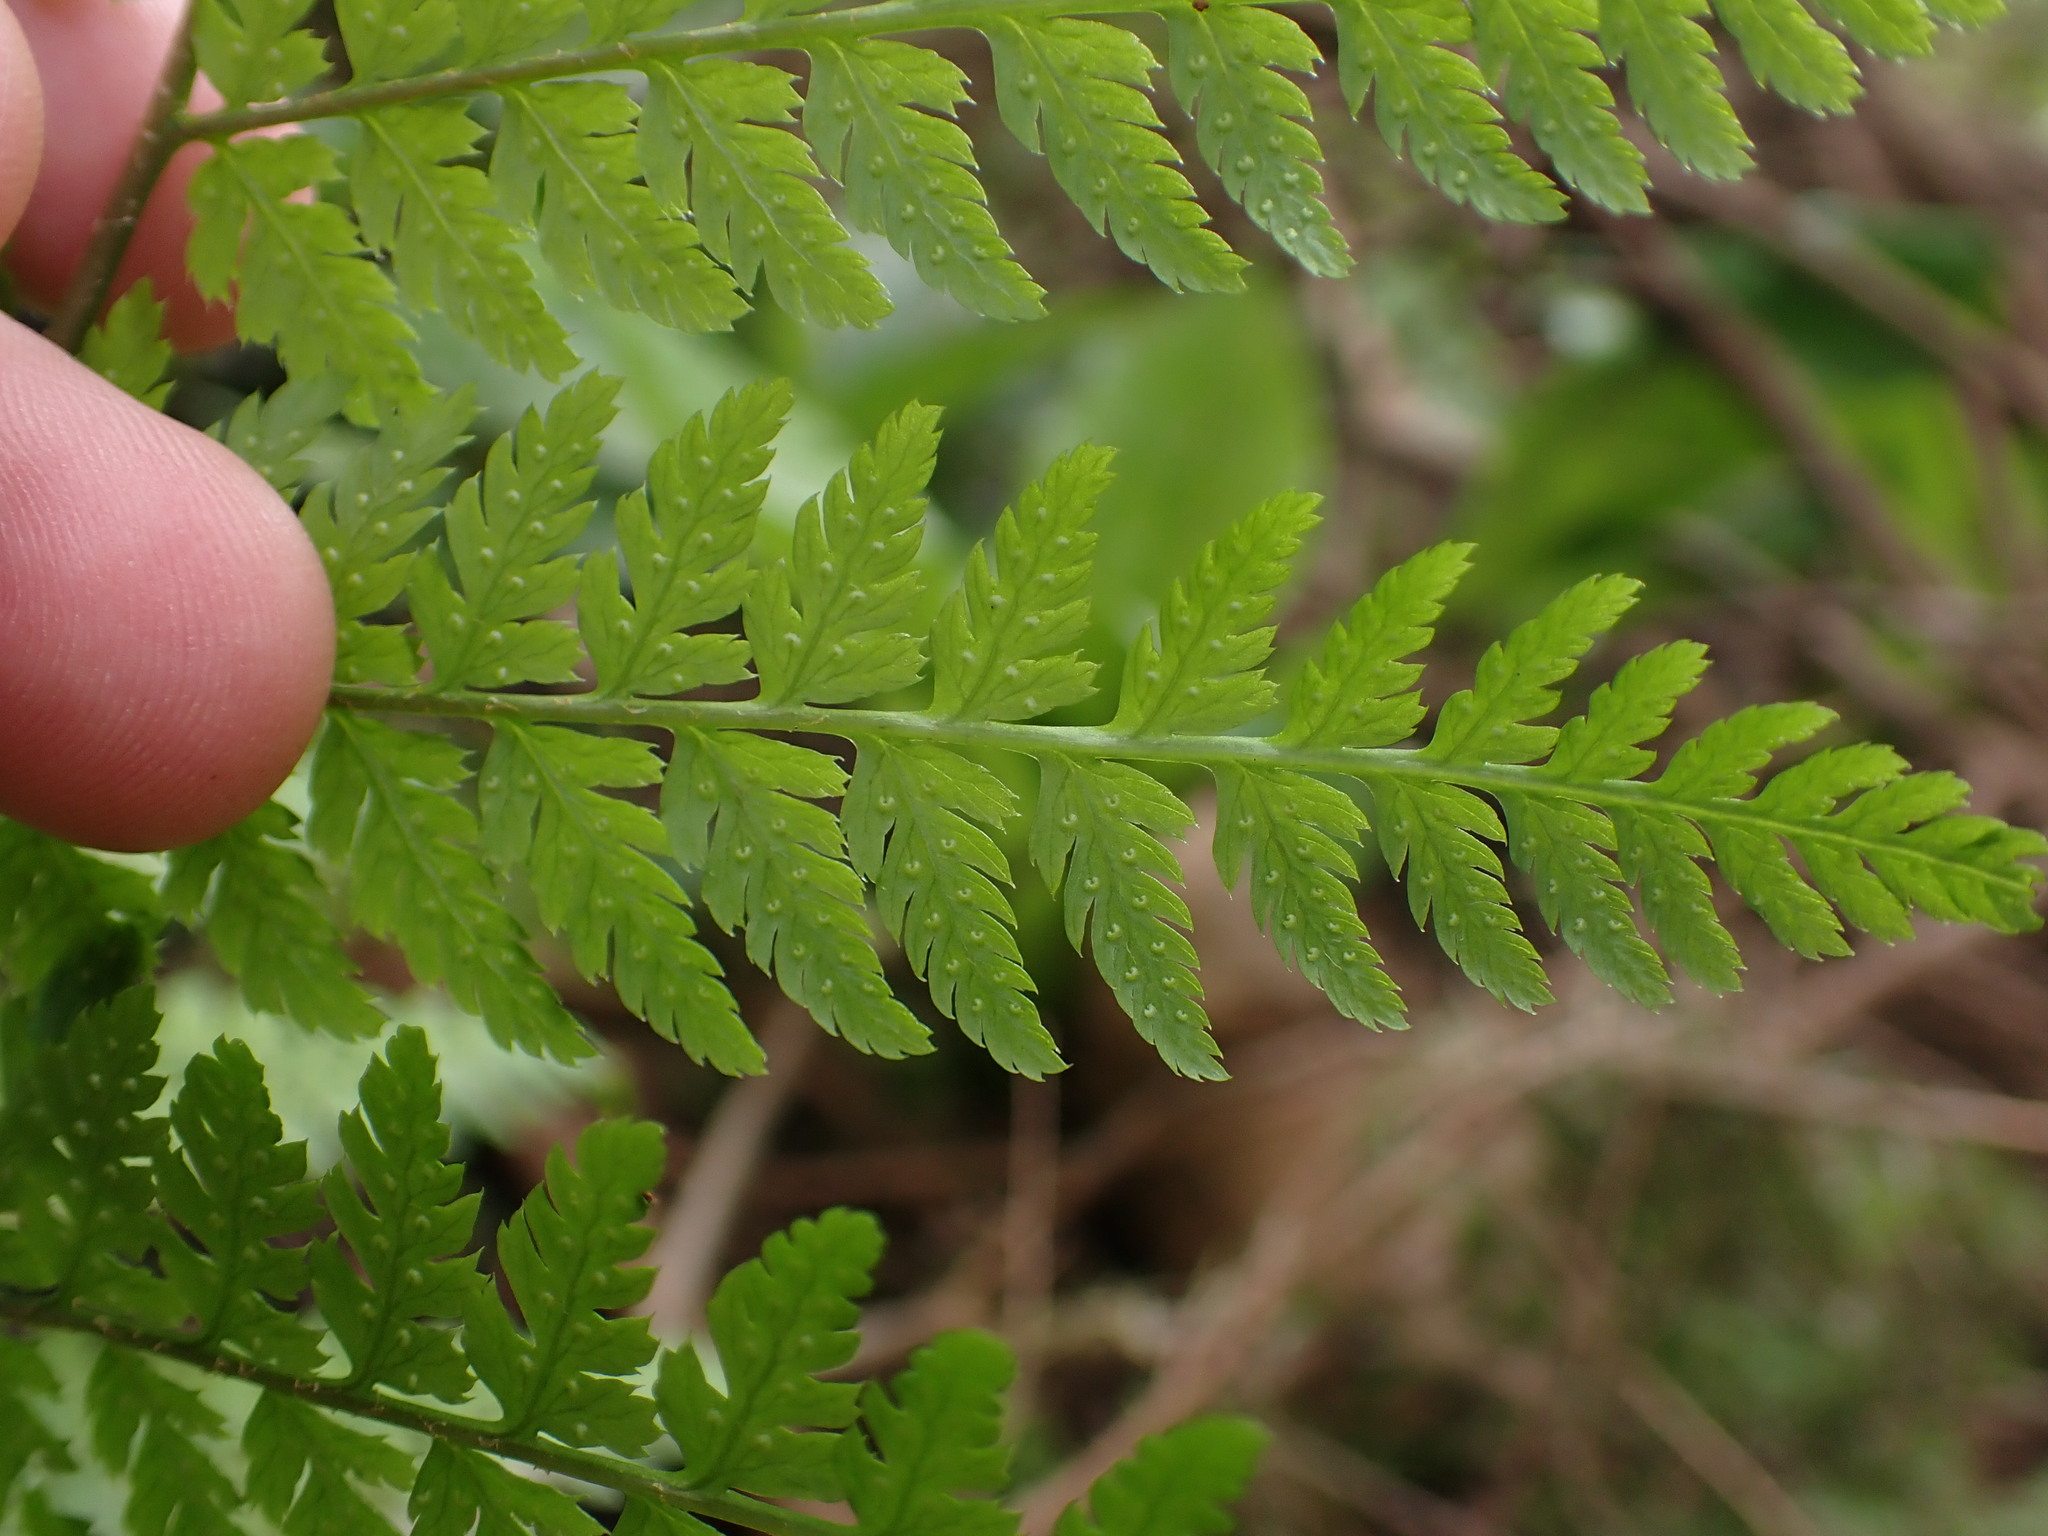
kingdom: Plantae
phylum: Tracheophyta
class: Polypodiopsida
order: Polypodiales
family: Dryopteridaceae
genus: Dryopteris
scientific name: Dryopteris expansa
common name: Northern buckler fern
